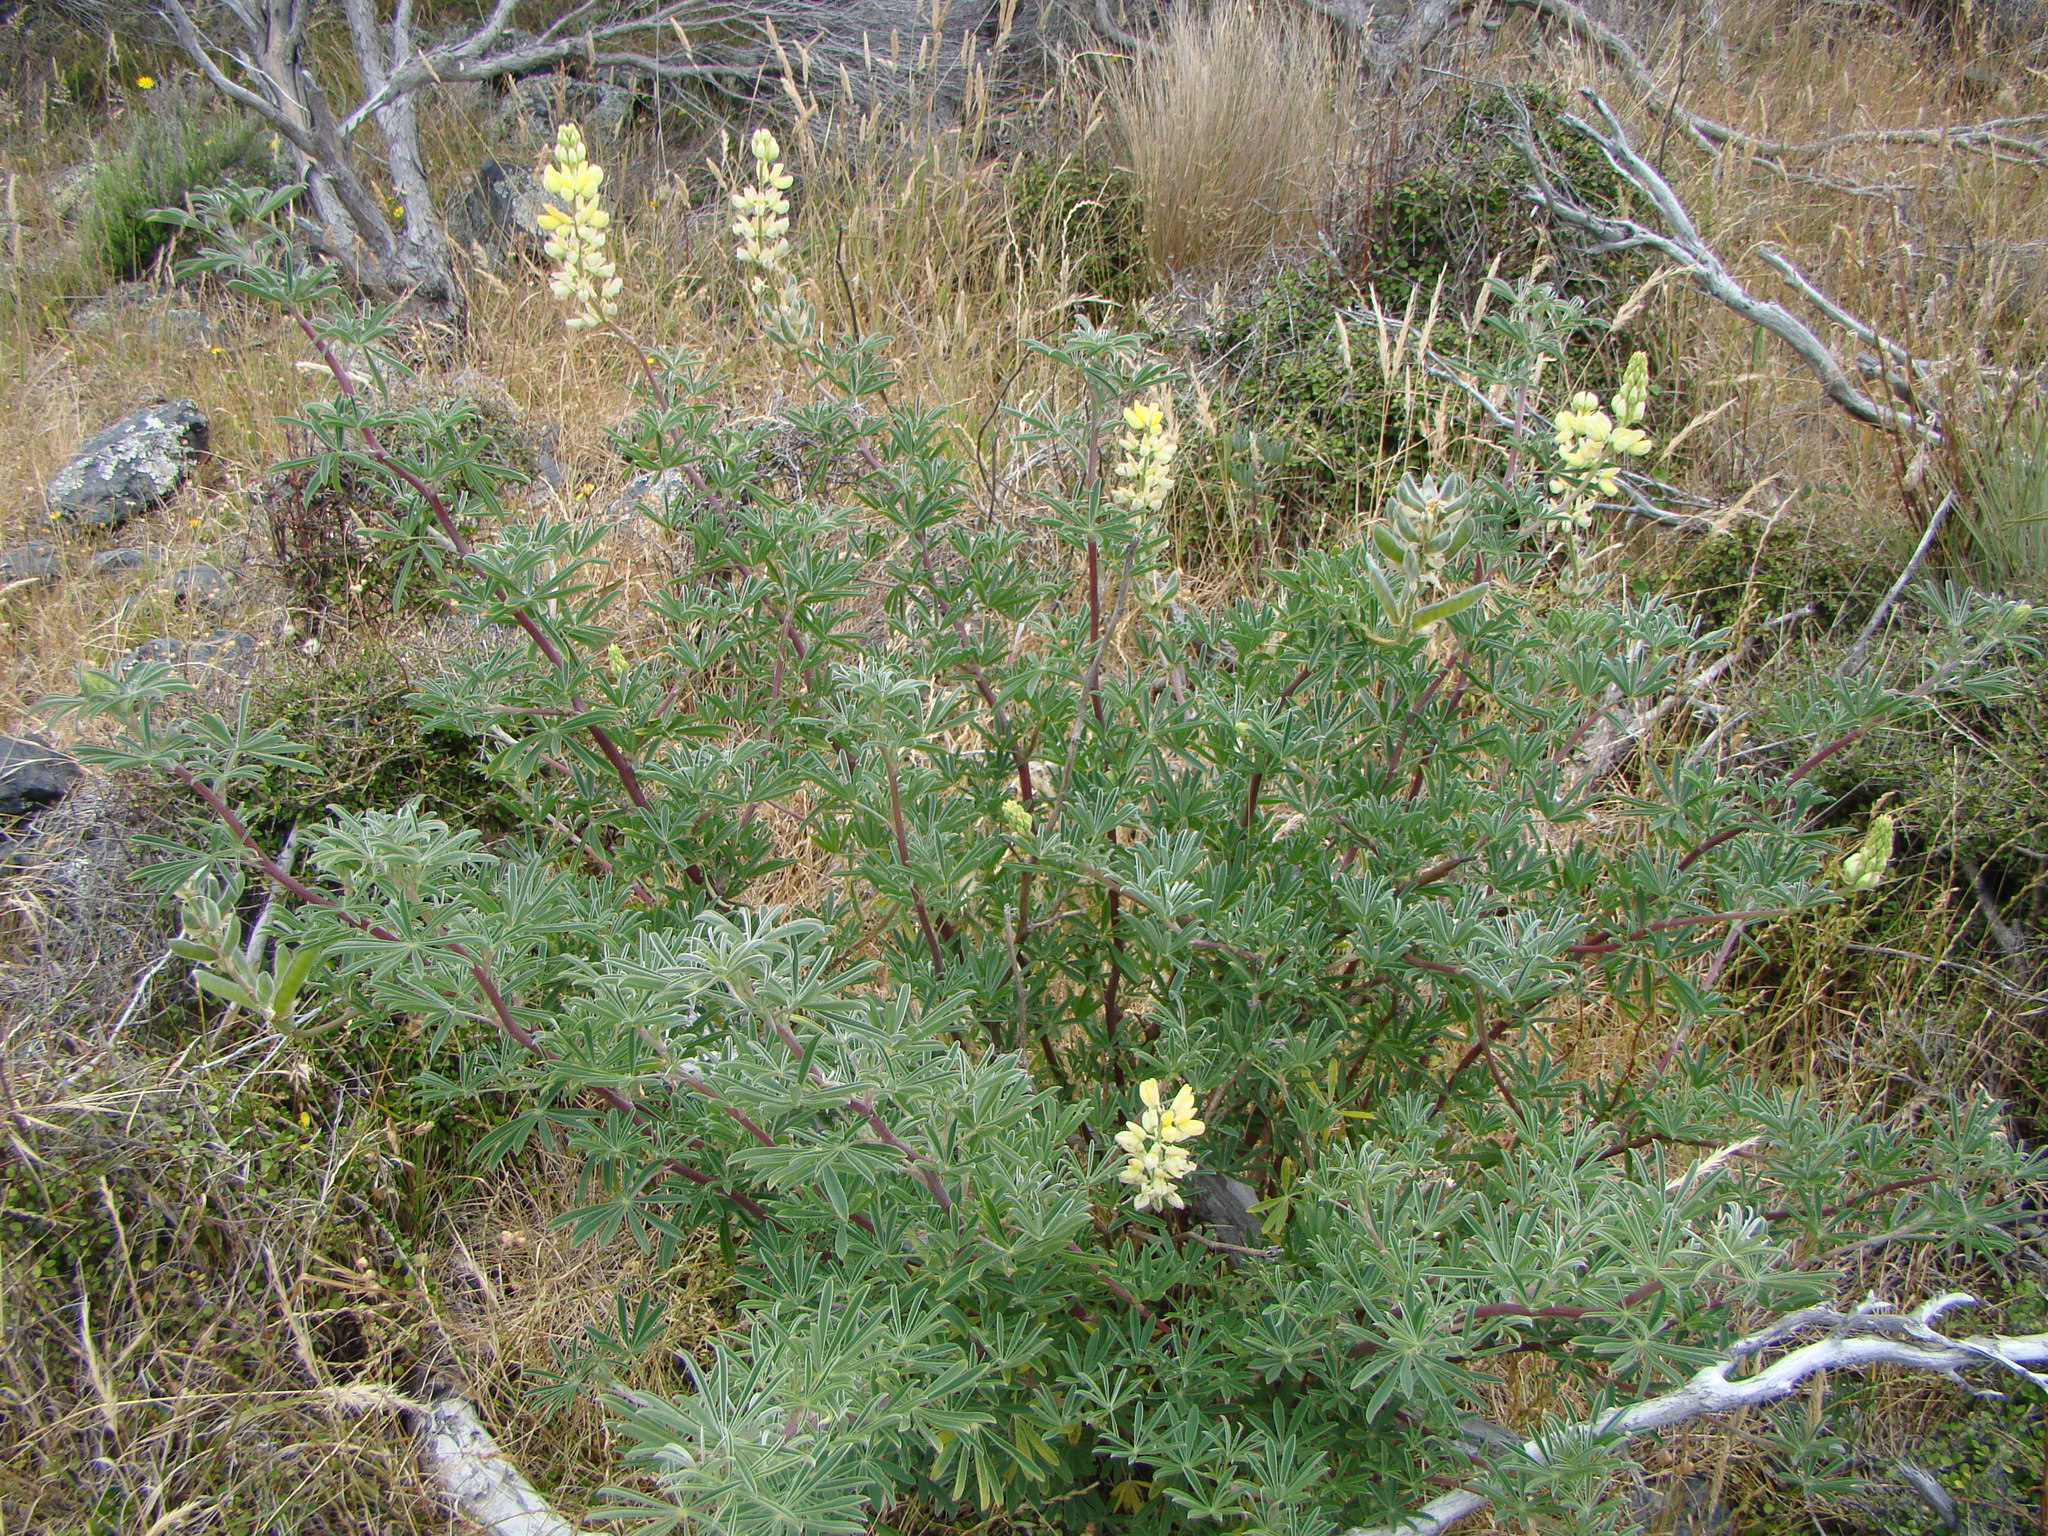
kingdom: Plantae
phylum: Tracheophyta
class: Magnoliopsida
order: Fabales
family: Fabaceae
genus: Lupinus
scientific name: Lupinus arboreus
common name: Yellow bush lupine
